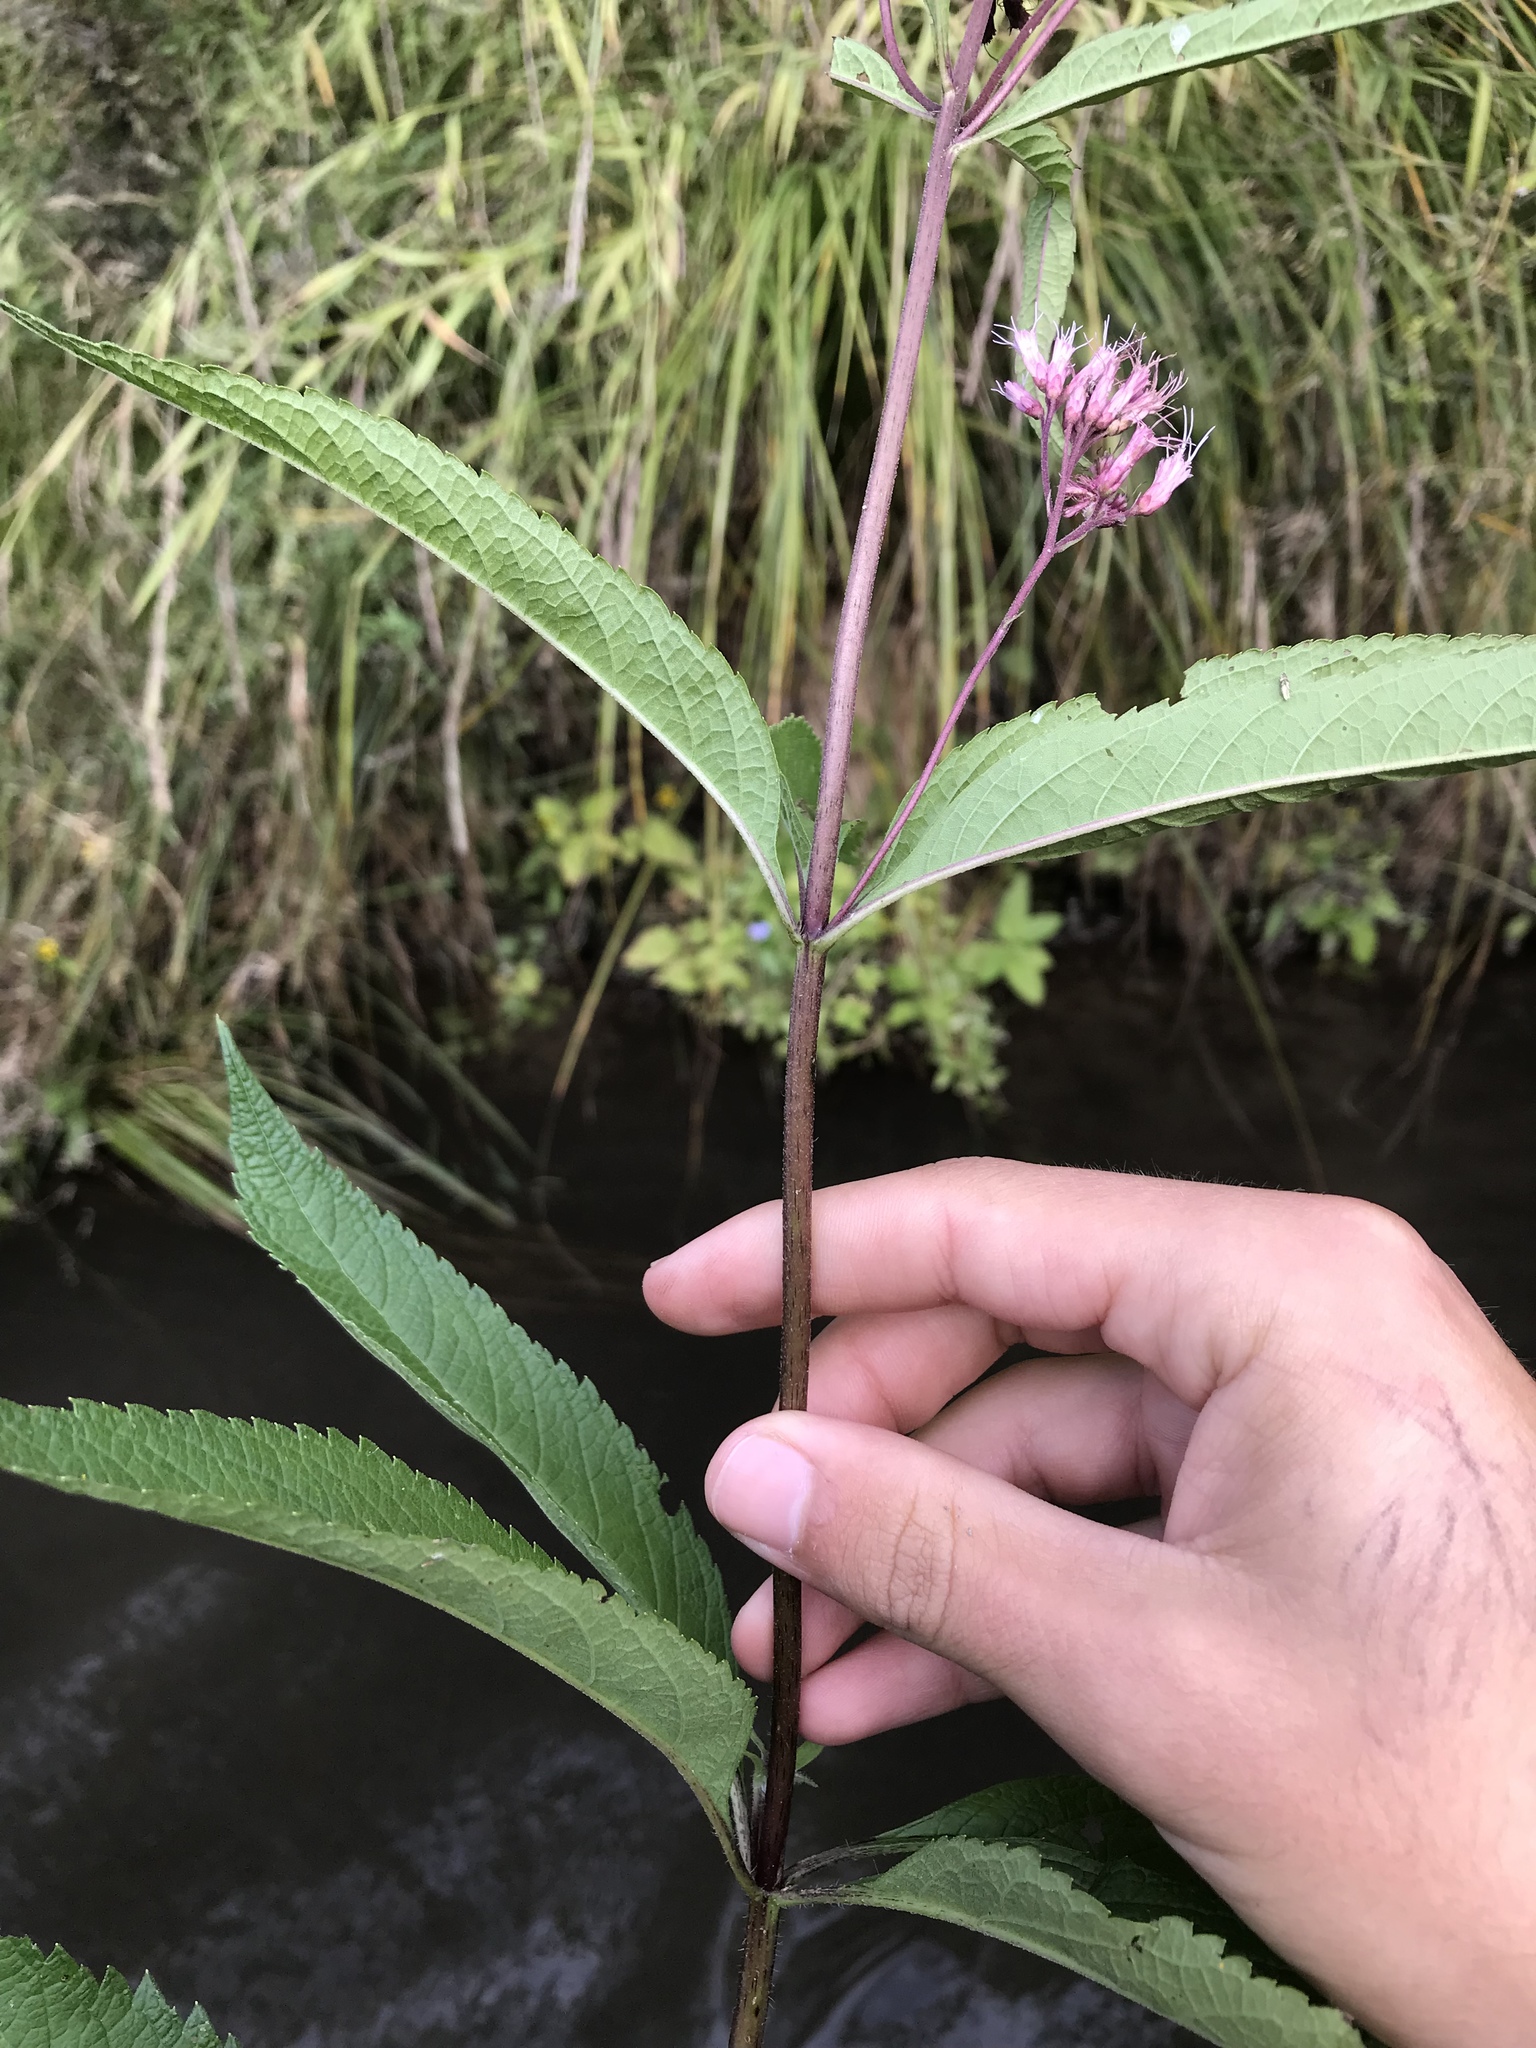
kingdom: Plantae
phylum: Tracheophyta
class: Magnoliopsida
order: Asterales
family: Asteraceae
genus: Eutrochium
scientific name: Eutrochium maculatum
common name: Spotted joe pye weed
